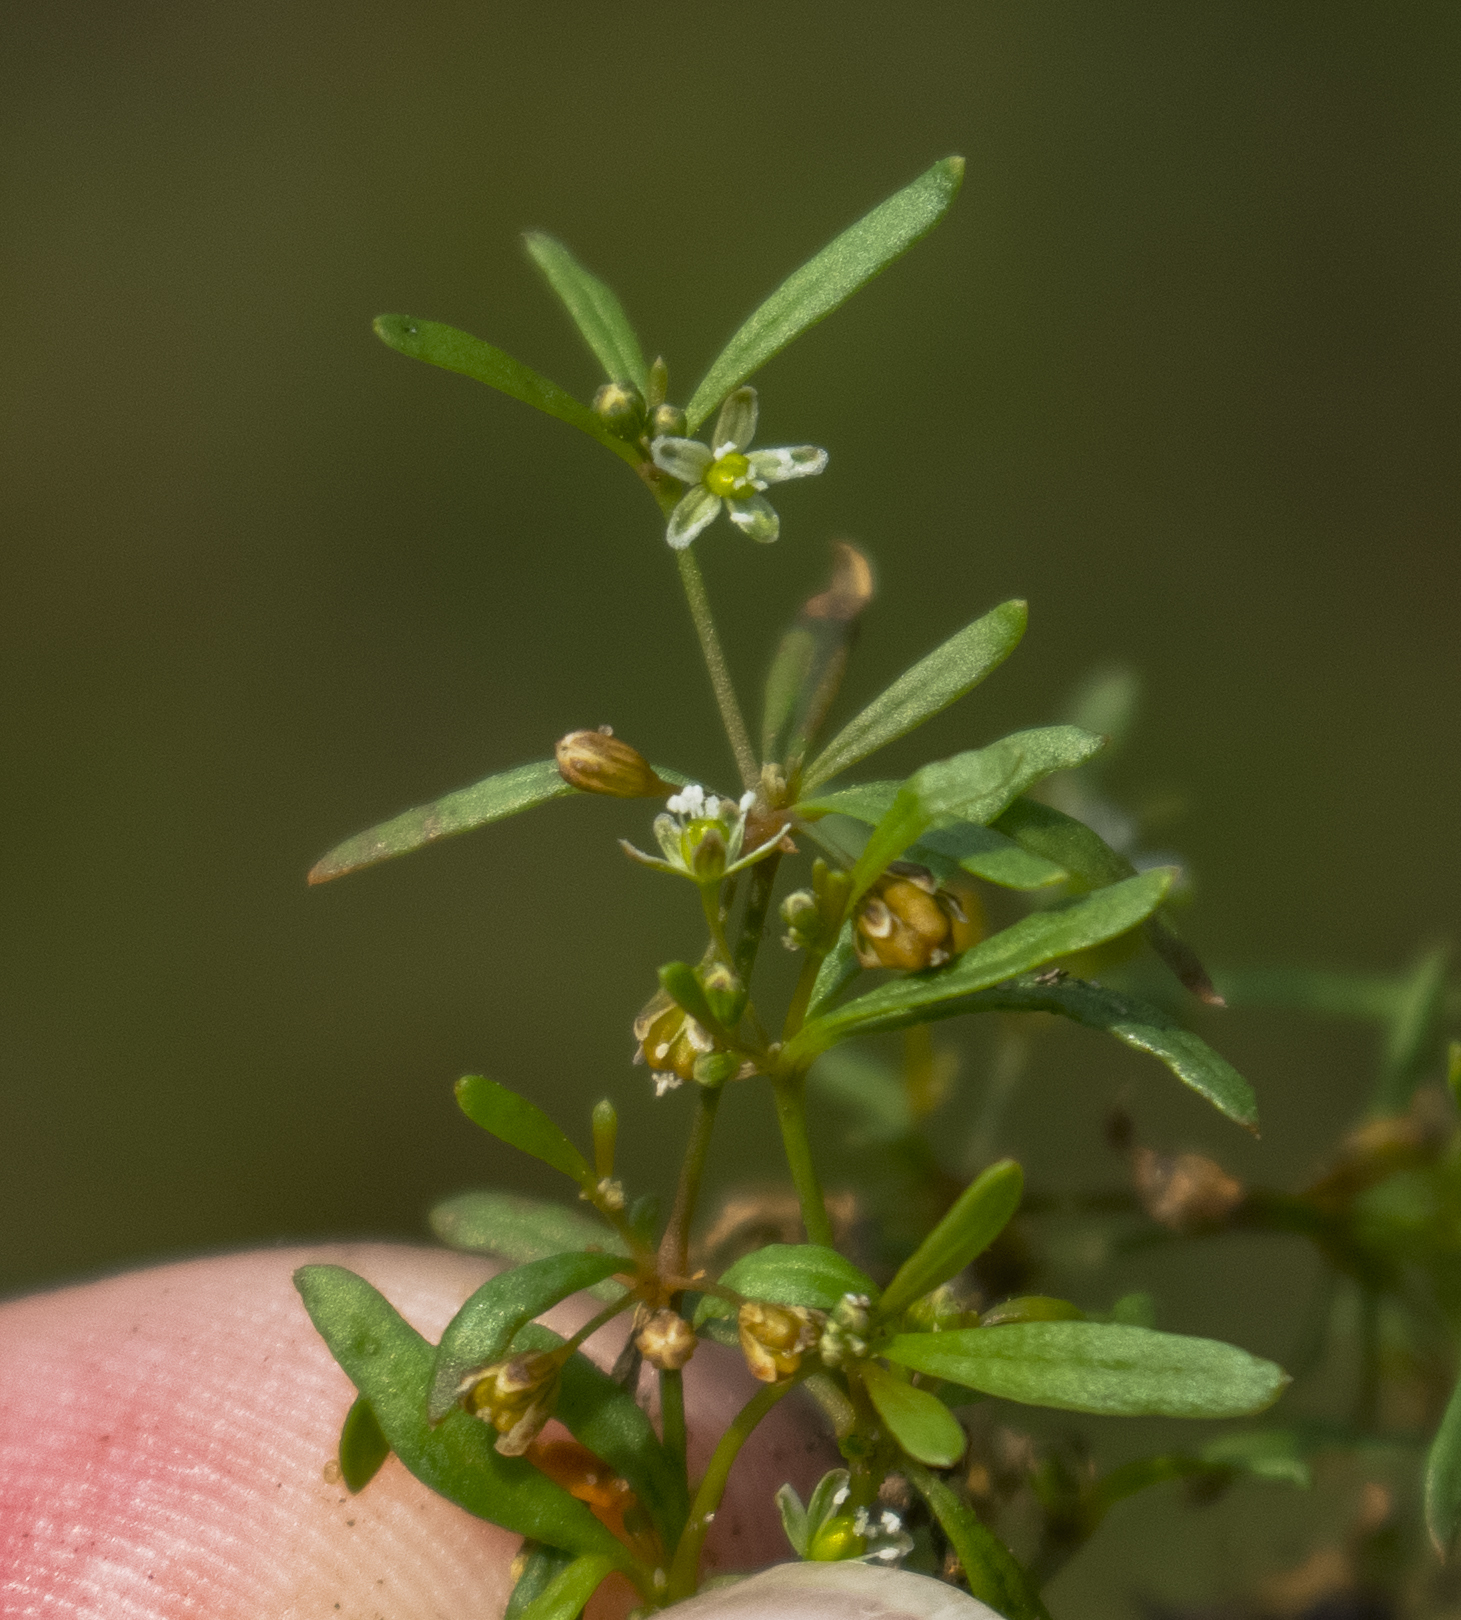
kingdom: Plantae
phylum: Tracheophyta
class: Magnoliopsida
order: Caryophyllales
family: Molluginaceae
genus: Mollugo
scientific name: Mollugo verticillata
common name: Green carpetweed
